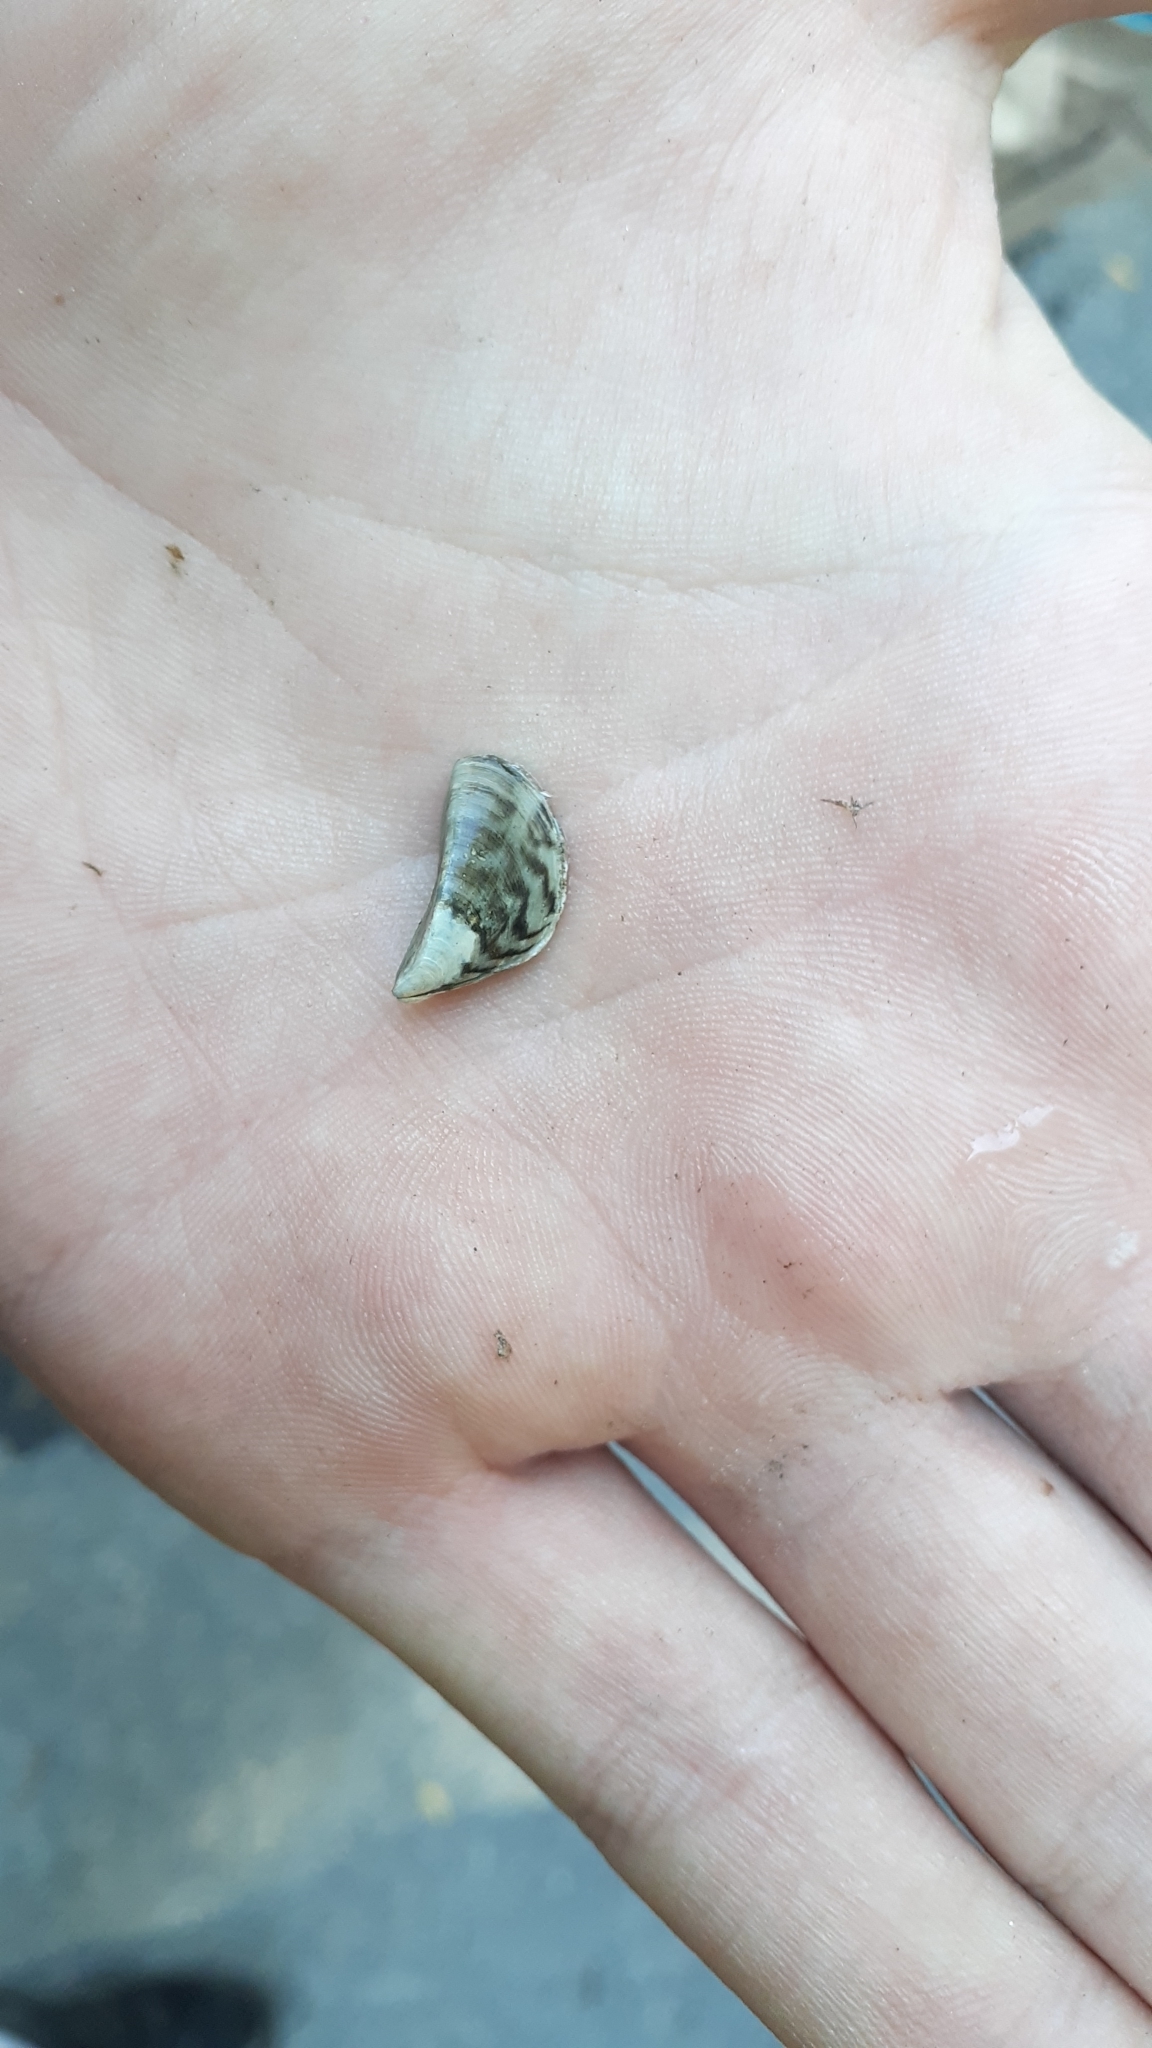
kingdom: Animalia
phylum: Mollusca
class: Bivalvia
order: Myida
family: Dreissenidae
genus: Dreissena
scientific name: Dreissena polymorpha
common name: Zebra mussel
